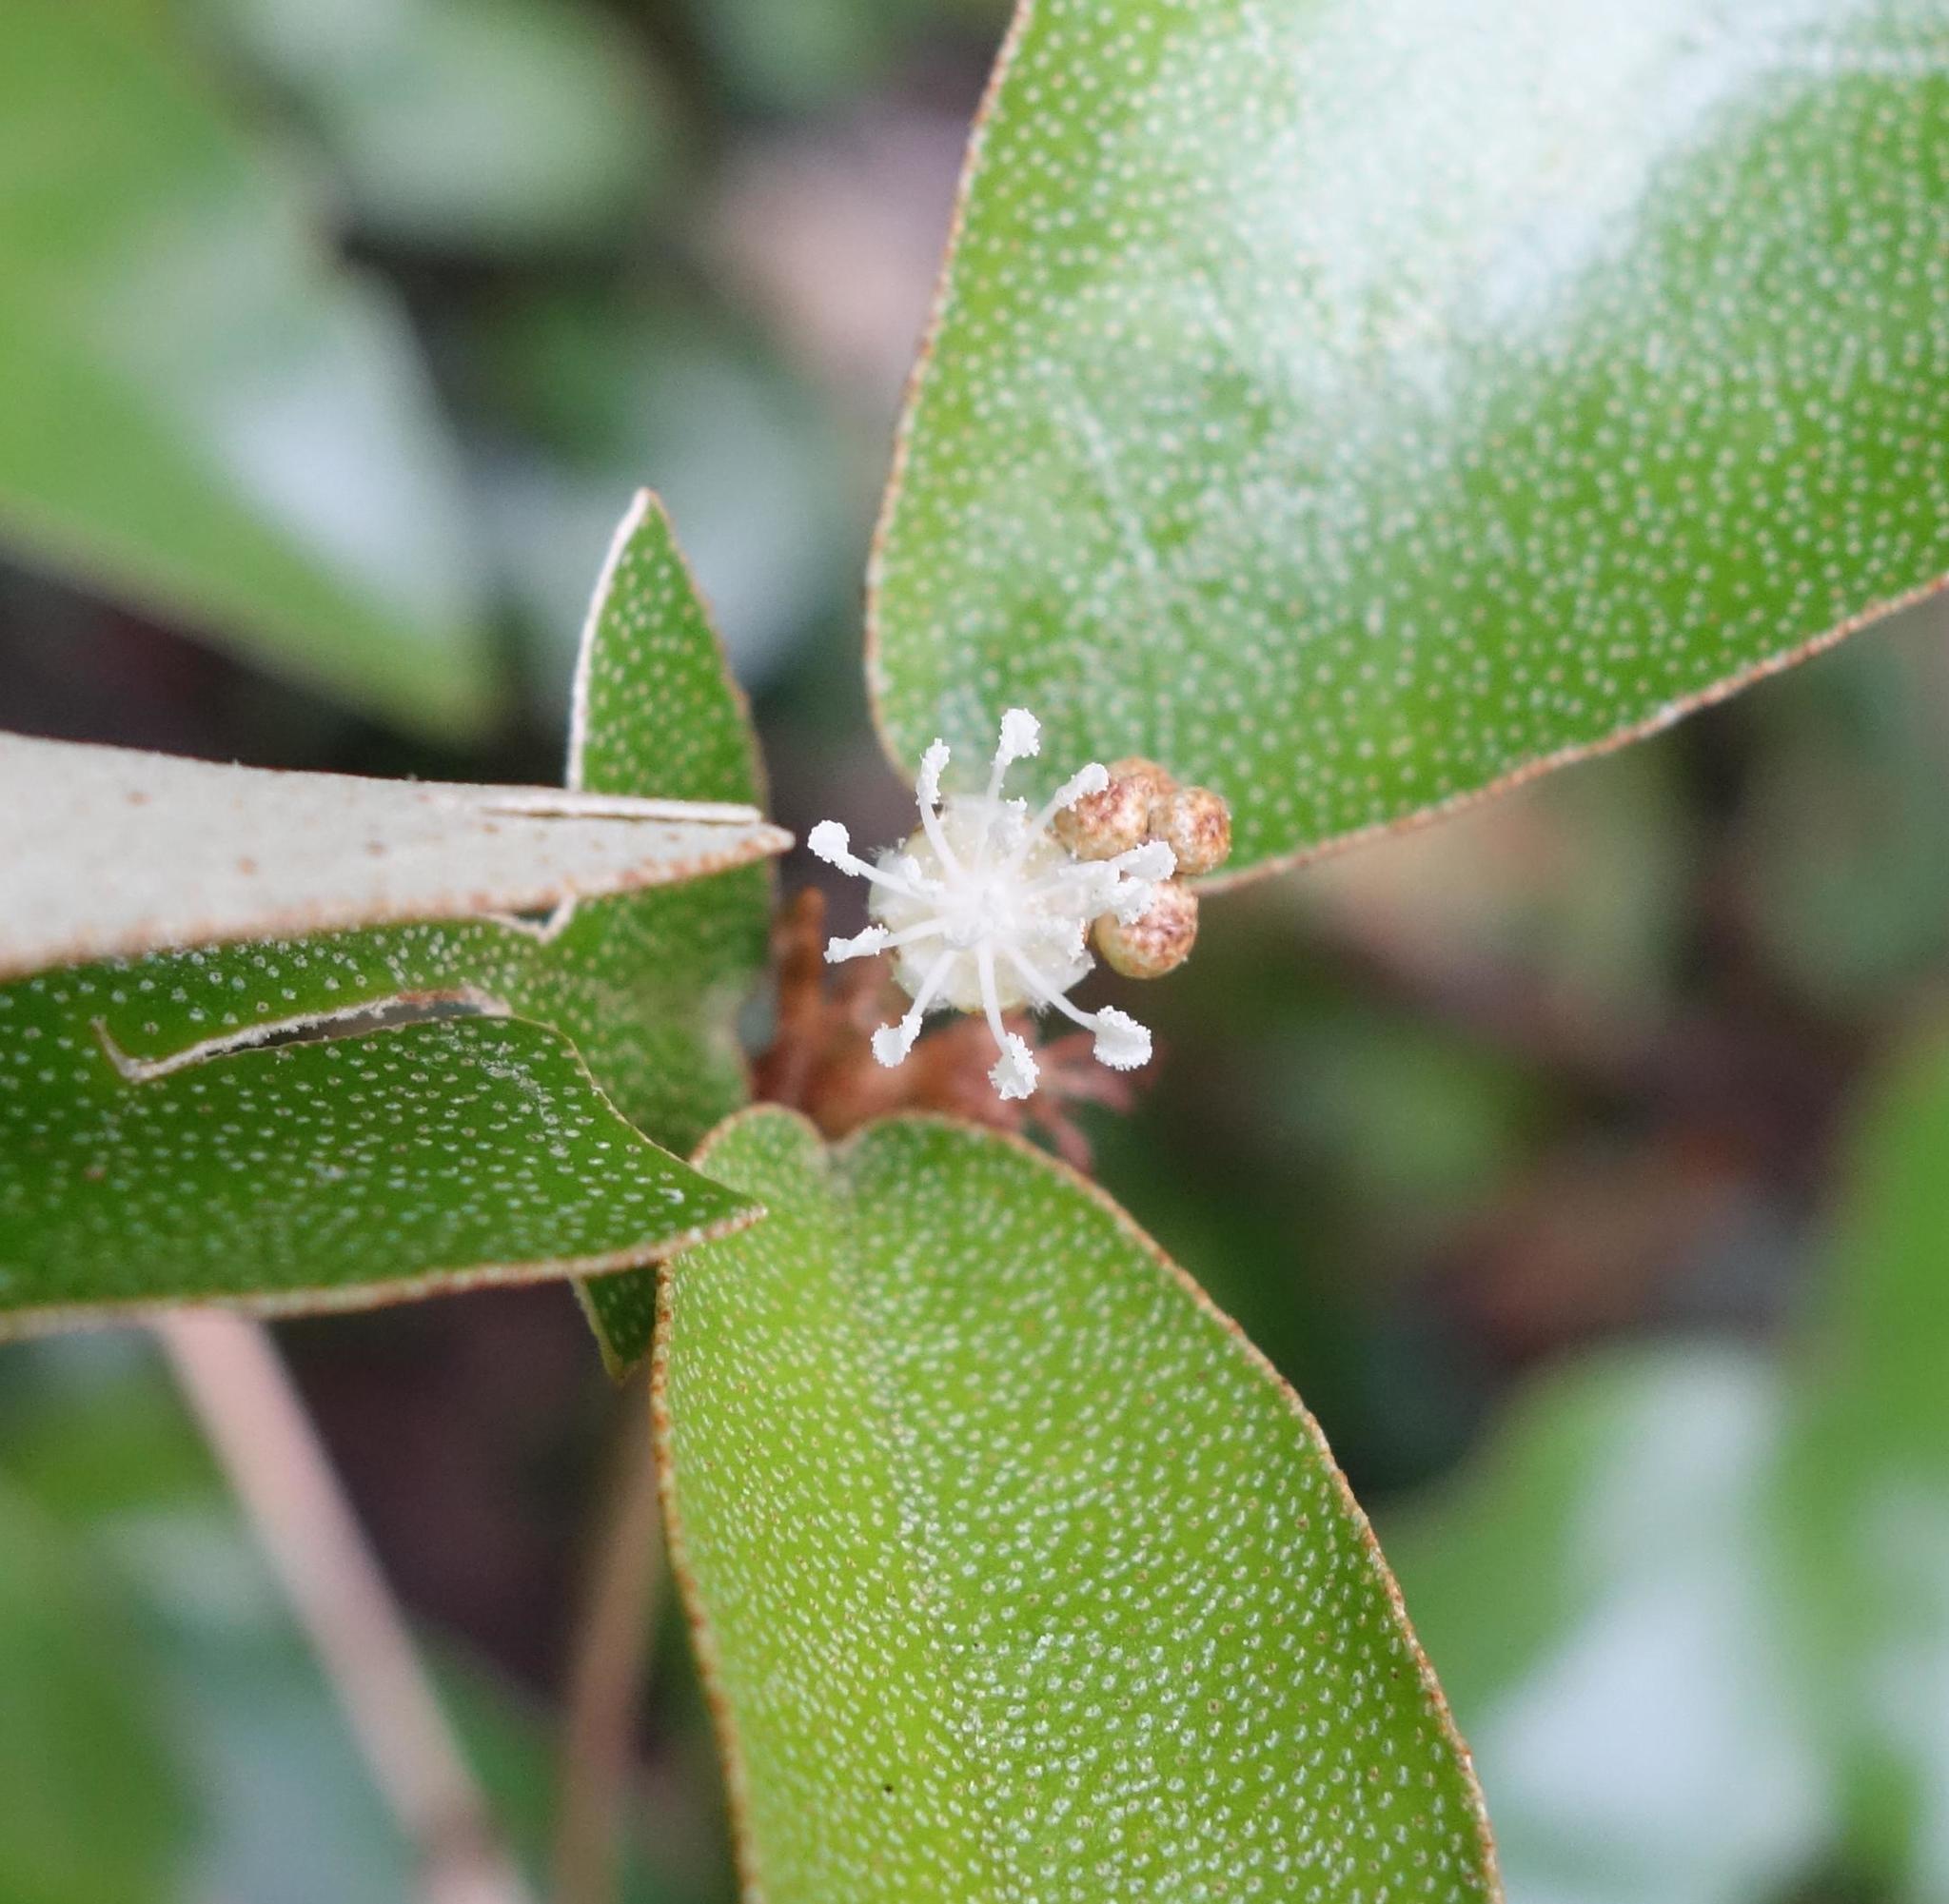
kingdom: Plantae
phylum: Tracheophyta
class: Magnoliopsida
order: Malpighiales
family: Euphorbiaceae
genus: Croton
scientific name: Croton cascarilloides
